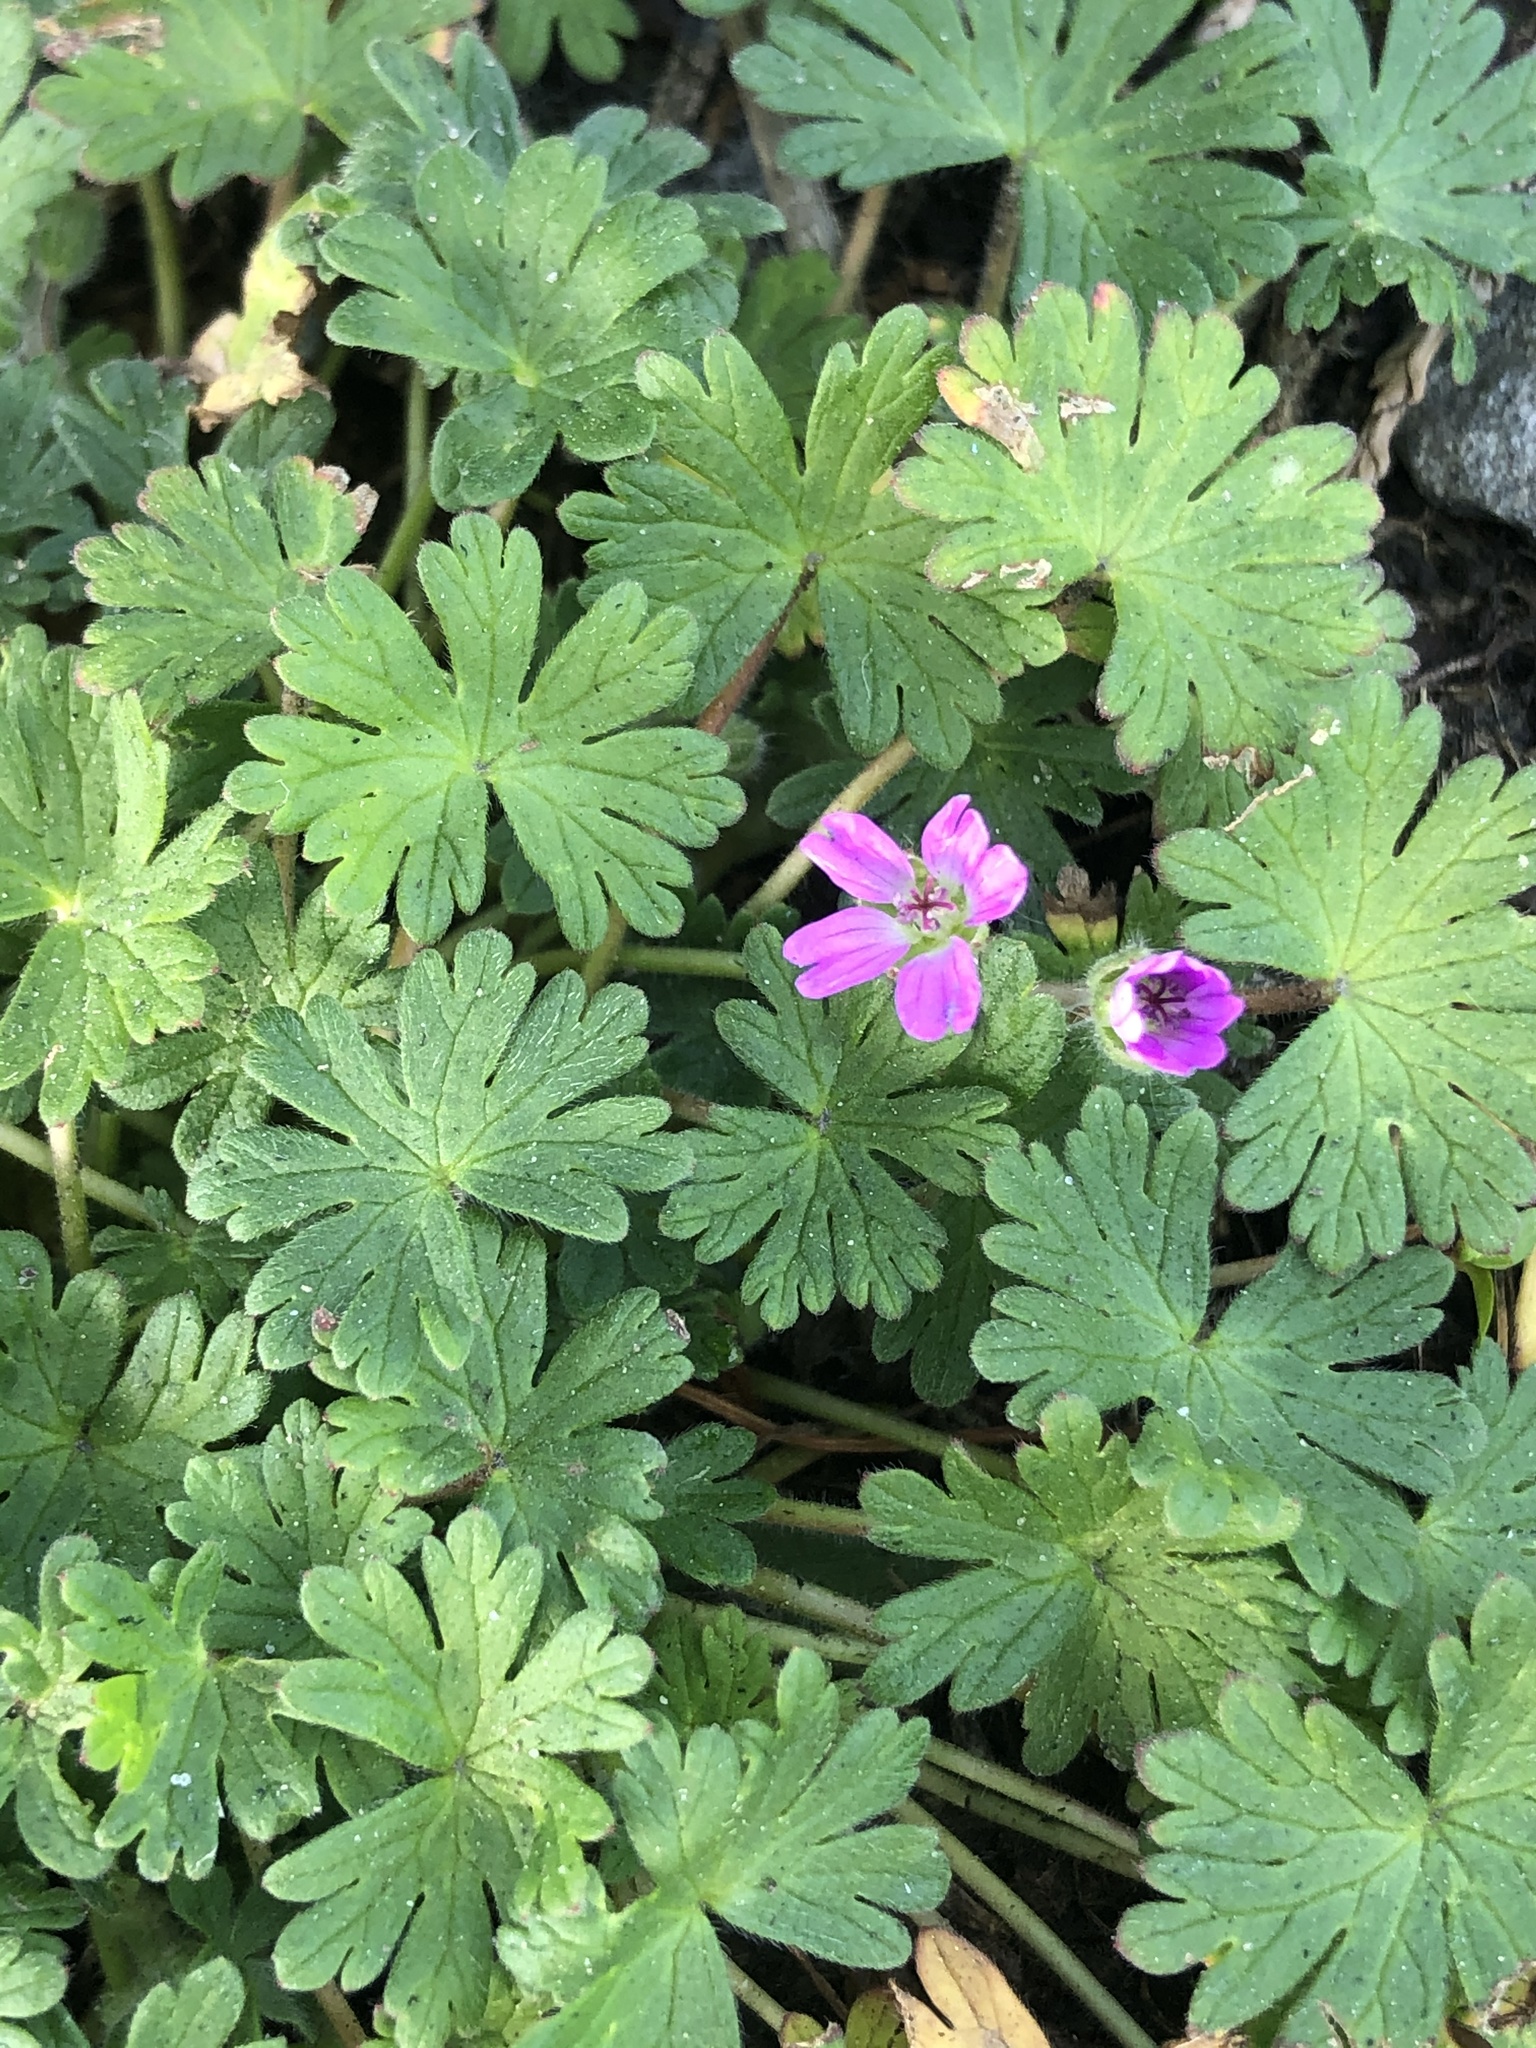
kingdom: Plantae
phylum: Tracheophyta
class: Magnoliopsida
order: Geraniales
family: Geraniaceae
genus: Geranium
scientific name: Geranium molle
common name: Dove's-foot crane's-bill
